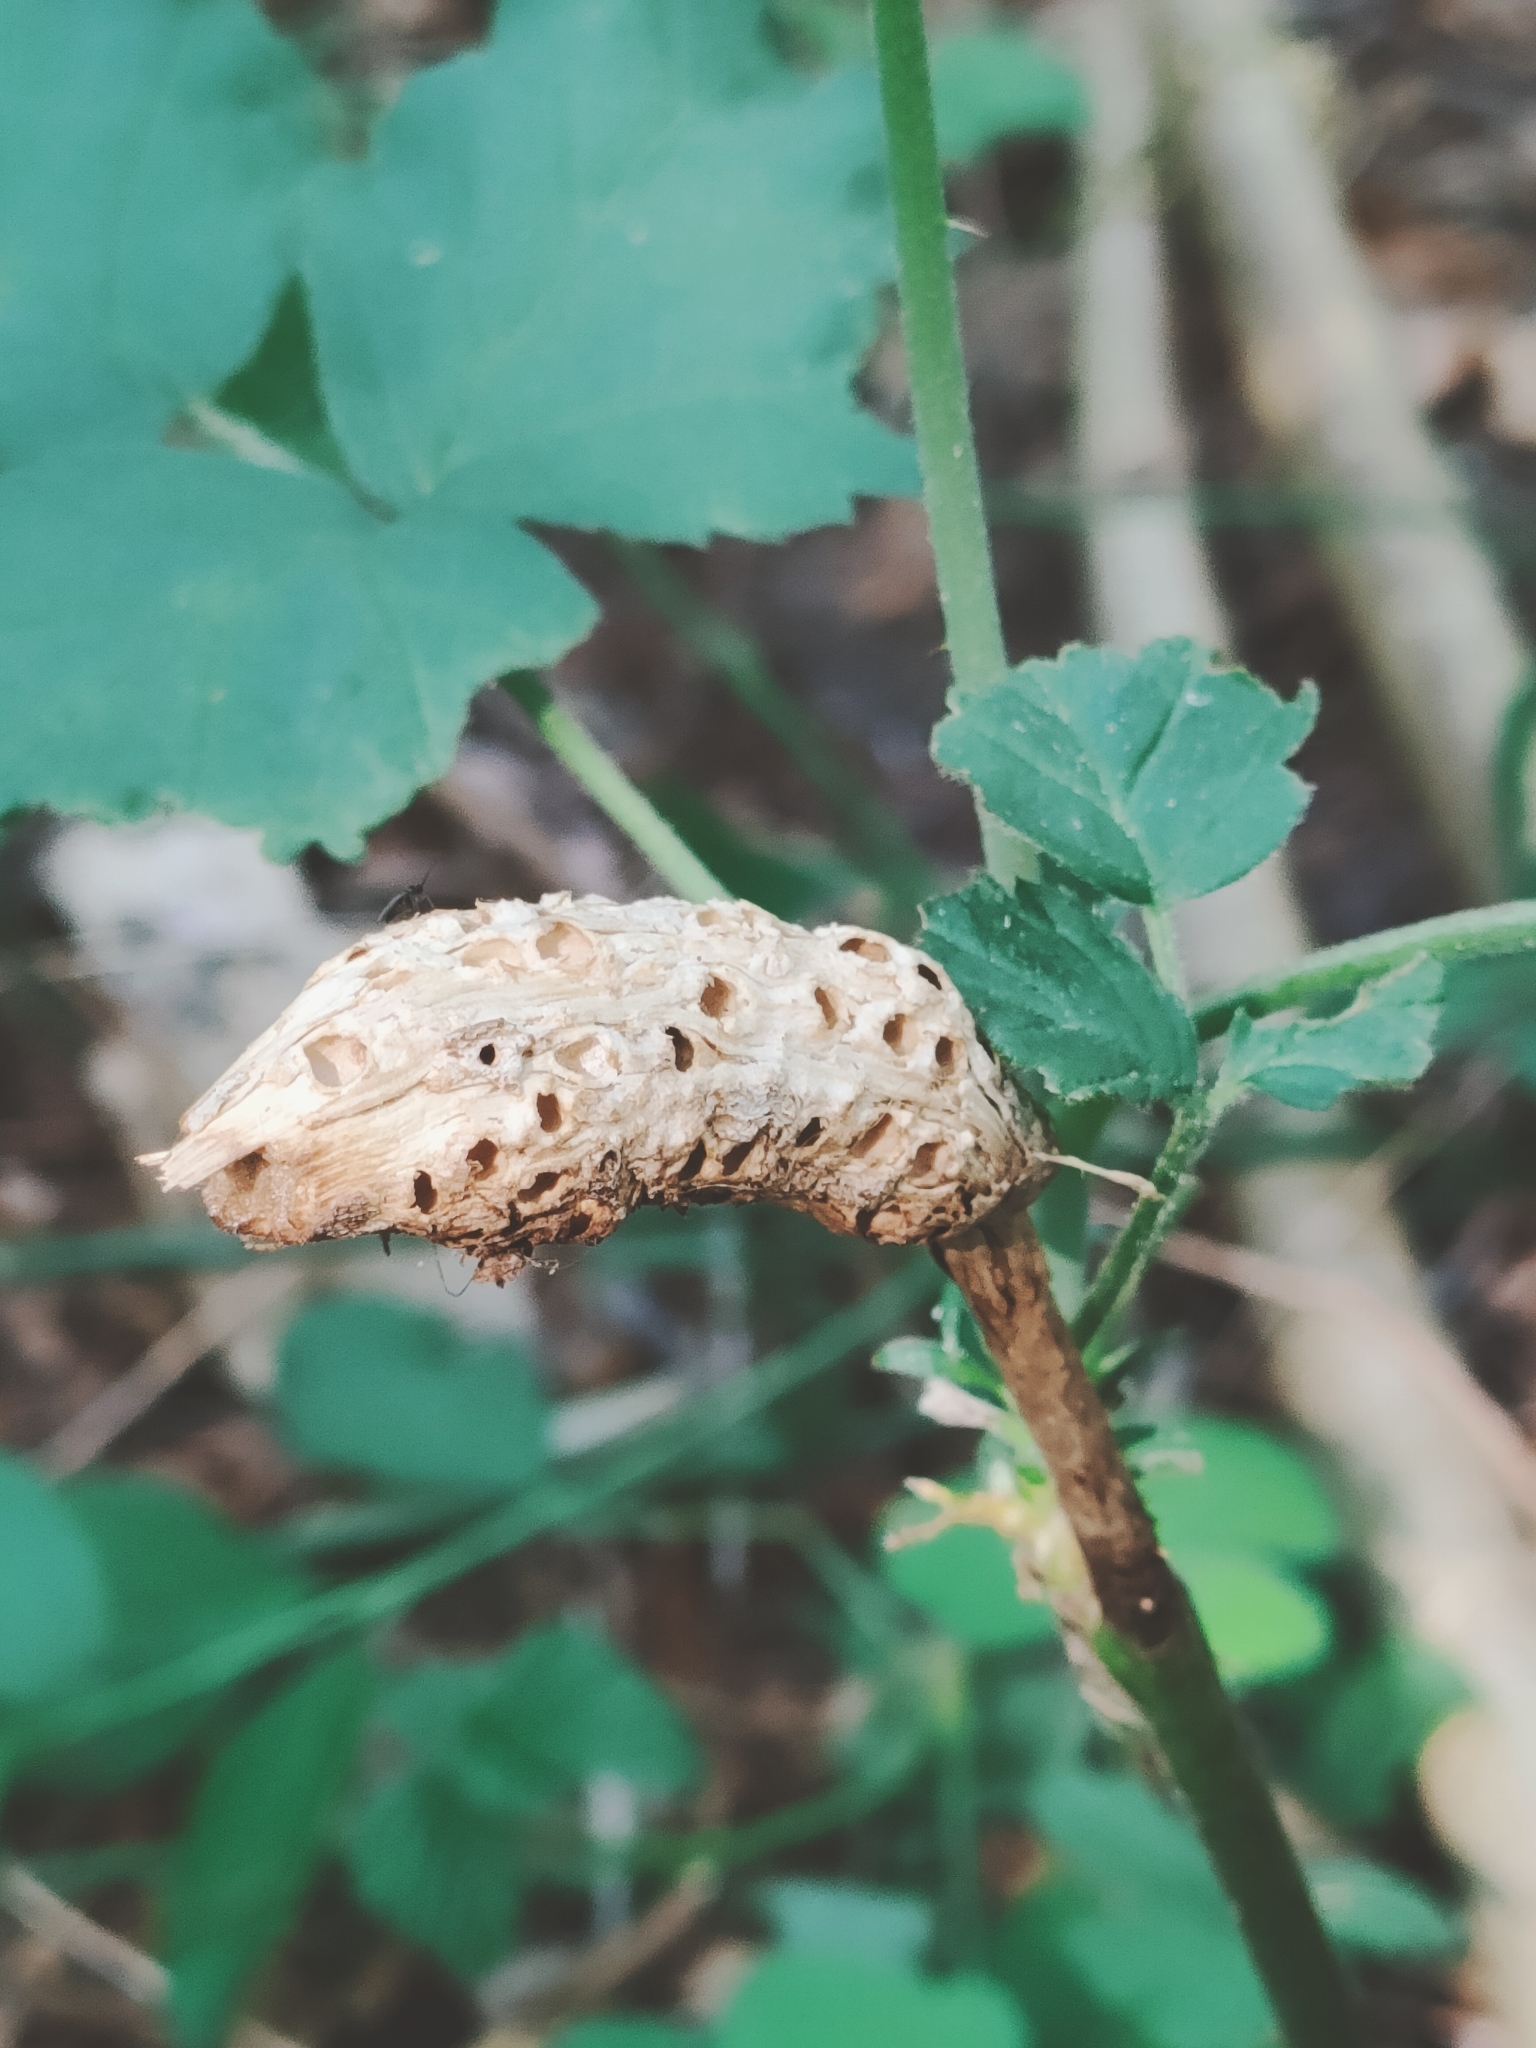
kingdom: Animalia
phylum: Arthropoda
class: Insecta
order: Hymenoptera
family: Cynipidae
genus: Diastrophus
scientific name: Diastrophus rubi
